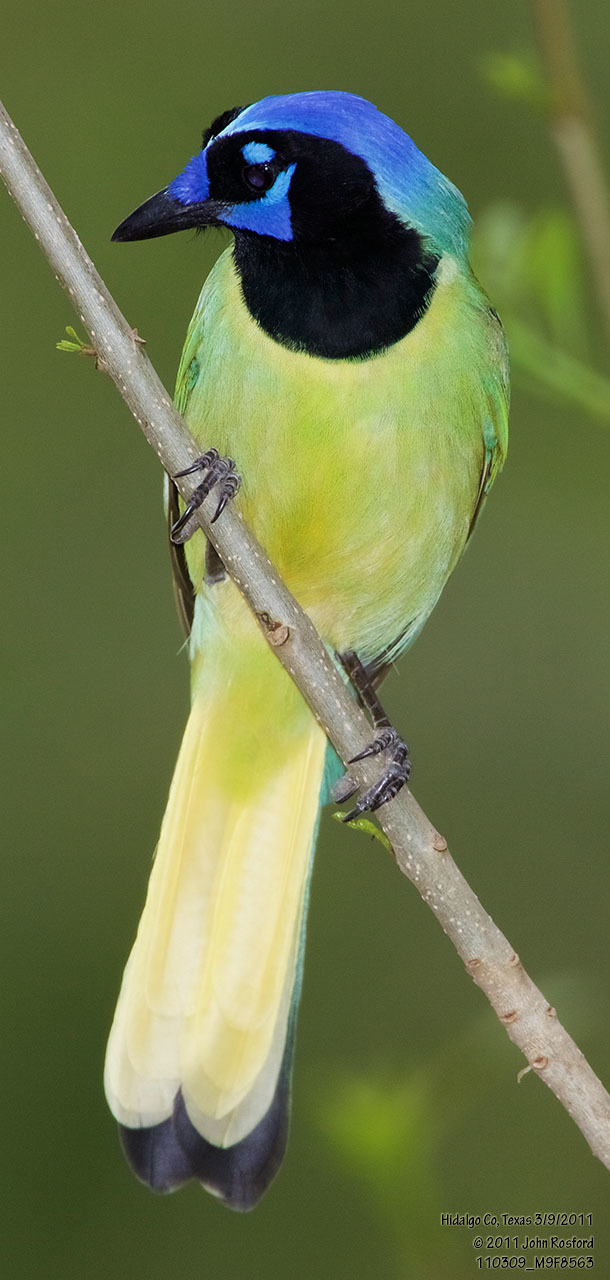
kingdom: Animalia
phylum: Chordata
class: Aves
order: Passeriformes
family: Corvidae
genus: Cyanocorax
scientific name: Cyanocorax yncas
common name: Green jay
